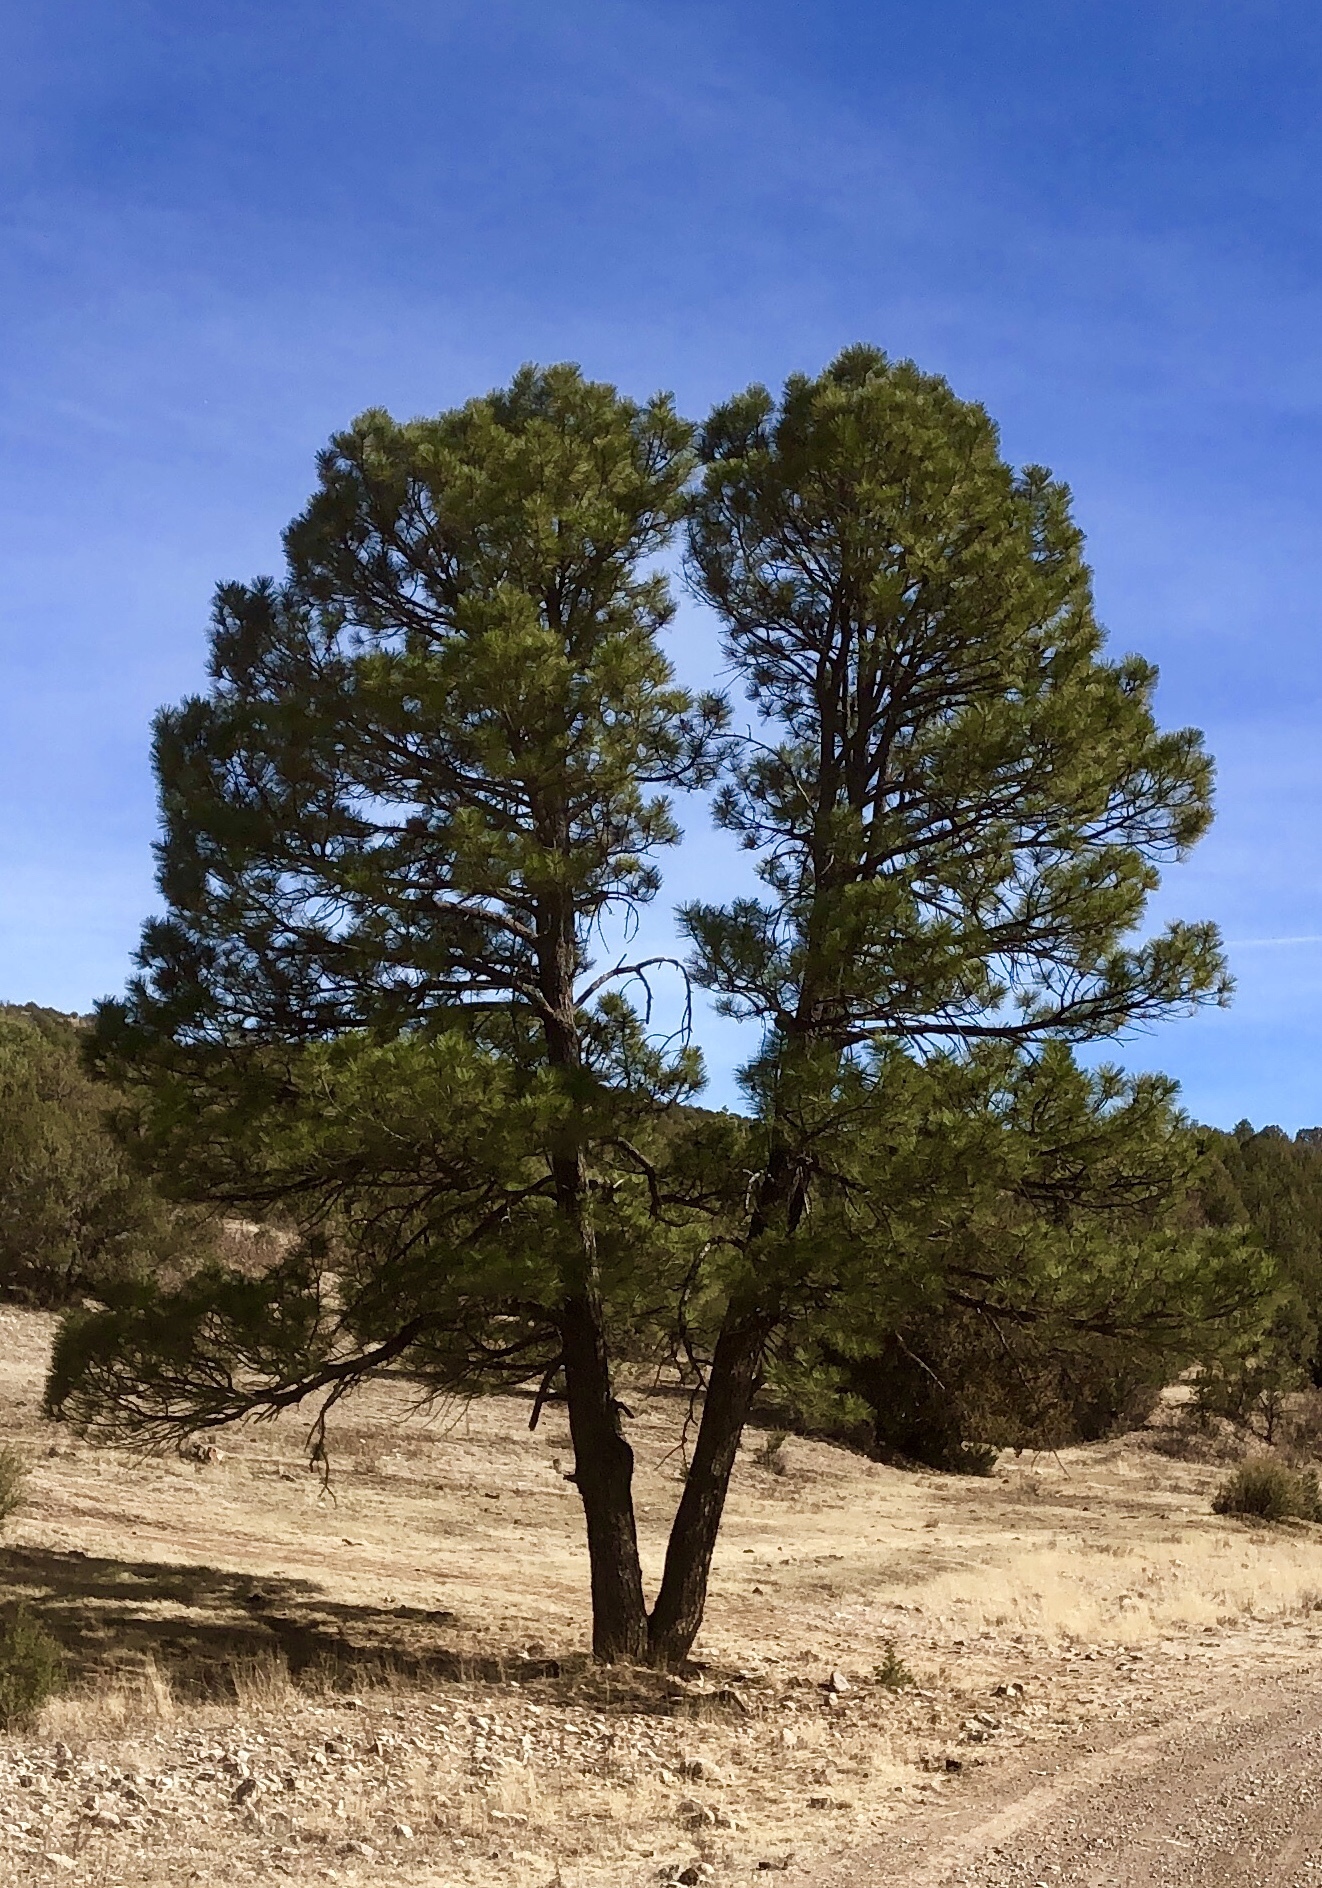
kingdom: Plantae
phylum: Tracheophyta
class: Pinopsida
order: Pinales
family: Pinaceae
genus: Pinus
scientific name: Pinus ponderosa
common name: Western yellow-pine
